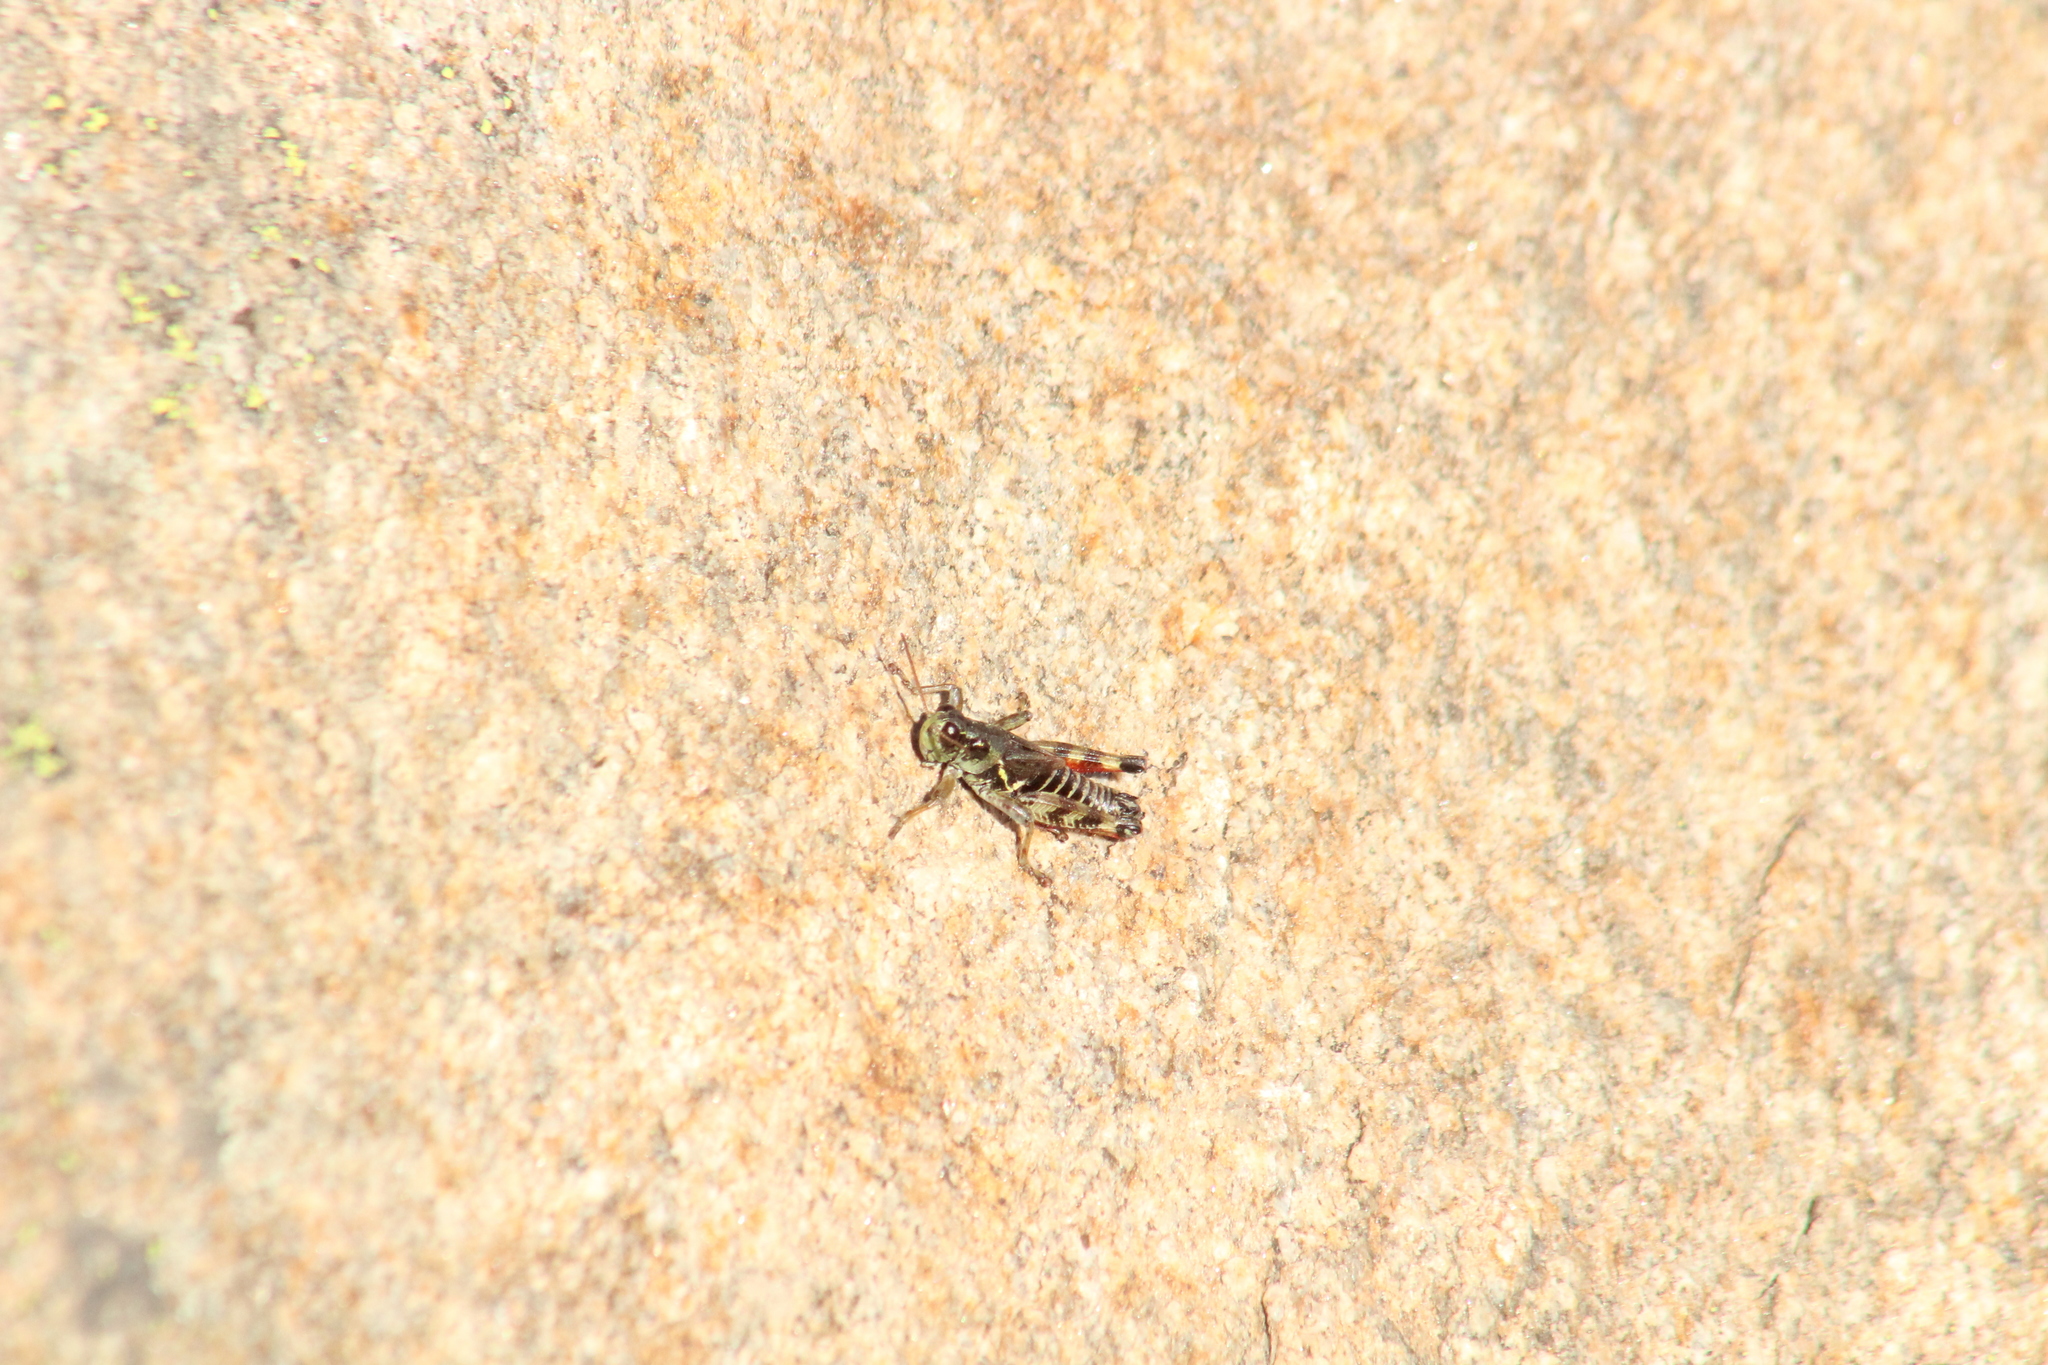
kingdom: Animalia
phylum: Arthropoda
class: Insecta
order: Orthoptera
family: Acrididae
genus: Bohemanella
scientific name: Bohemanella frigida
